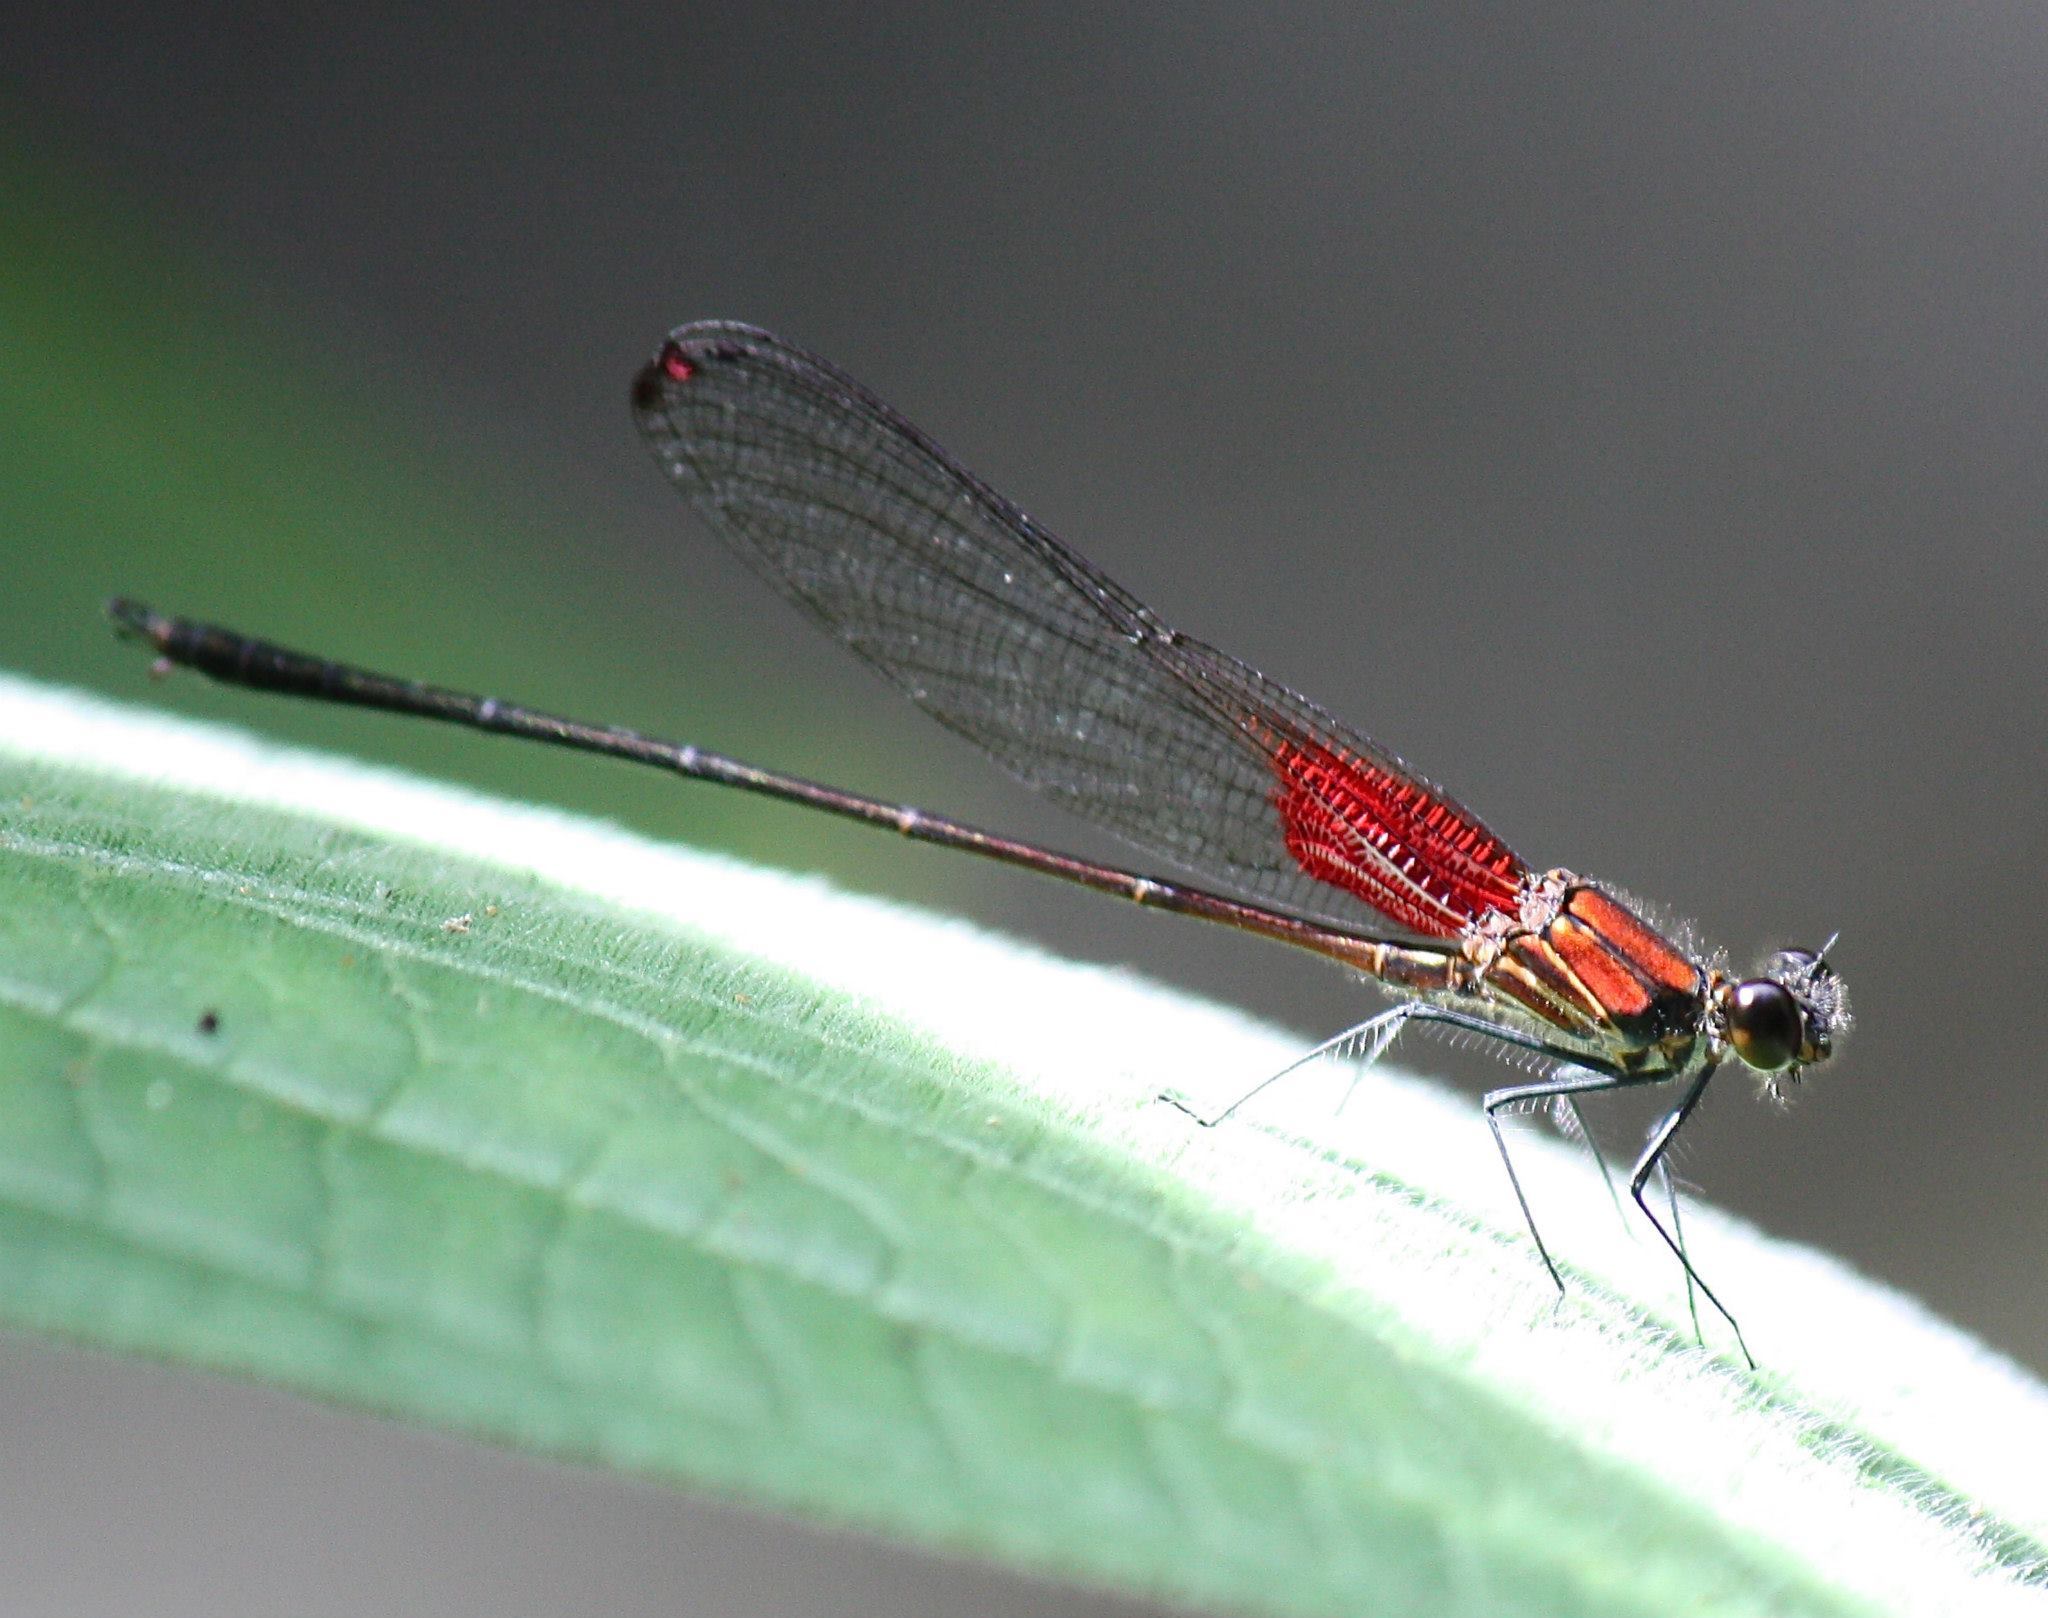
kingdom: Animalia
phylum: Arthropoda
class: Insecta
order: Odonata
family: Calopterygidae
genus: Hetaerina
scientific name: Hetaerina occisa
